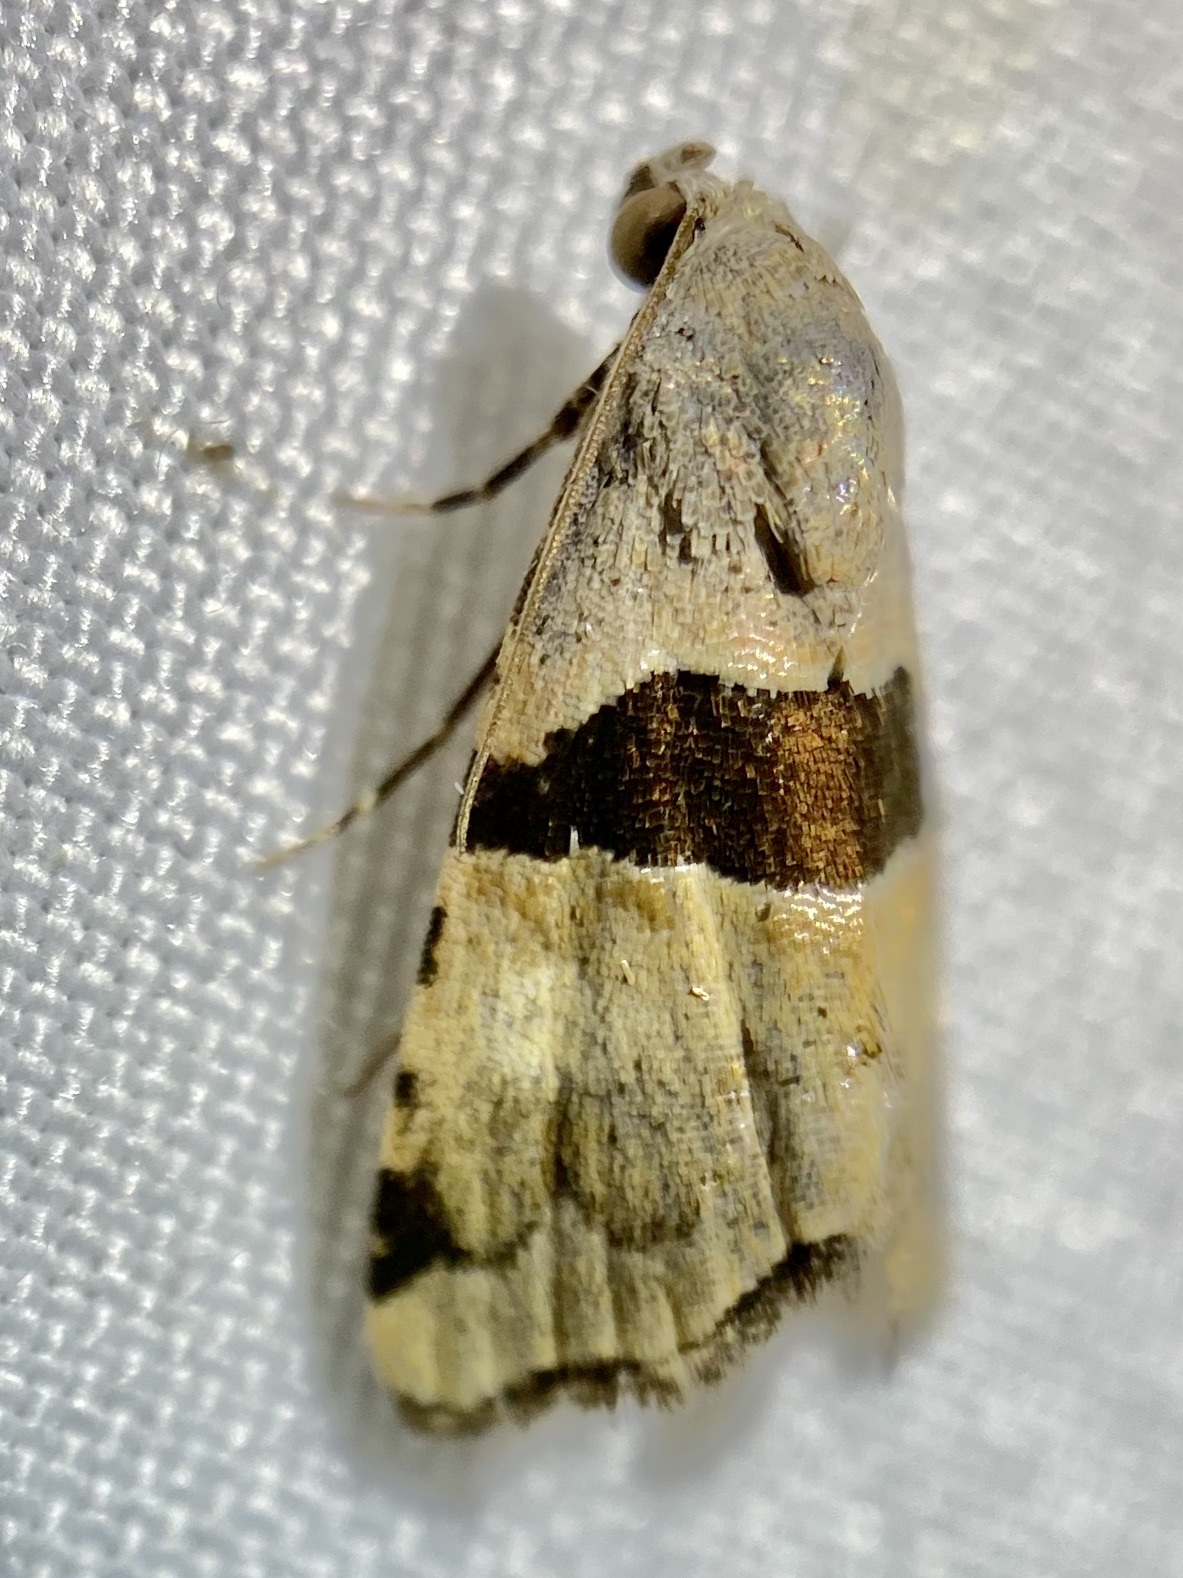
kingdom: Animalia
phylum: Arthropoda
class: Insecta
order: Lepidoptera
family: Noctuidae
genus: Cobubatha
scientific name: Cobubatha lixiva
